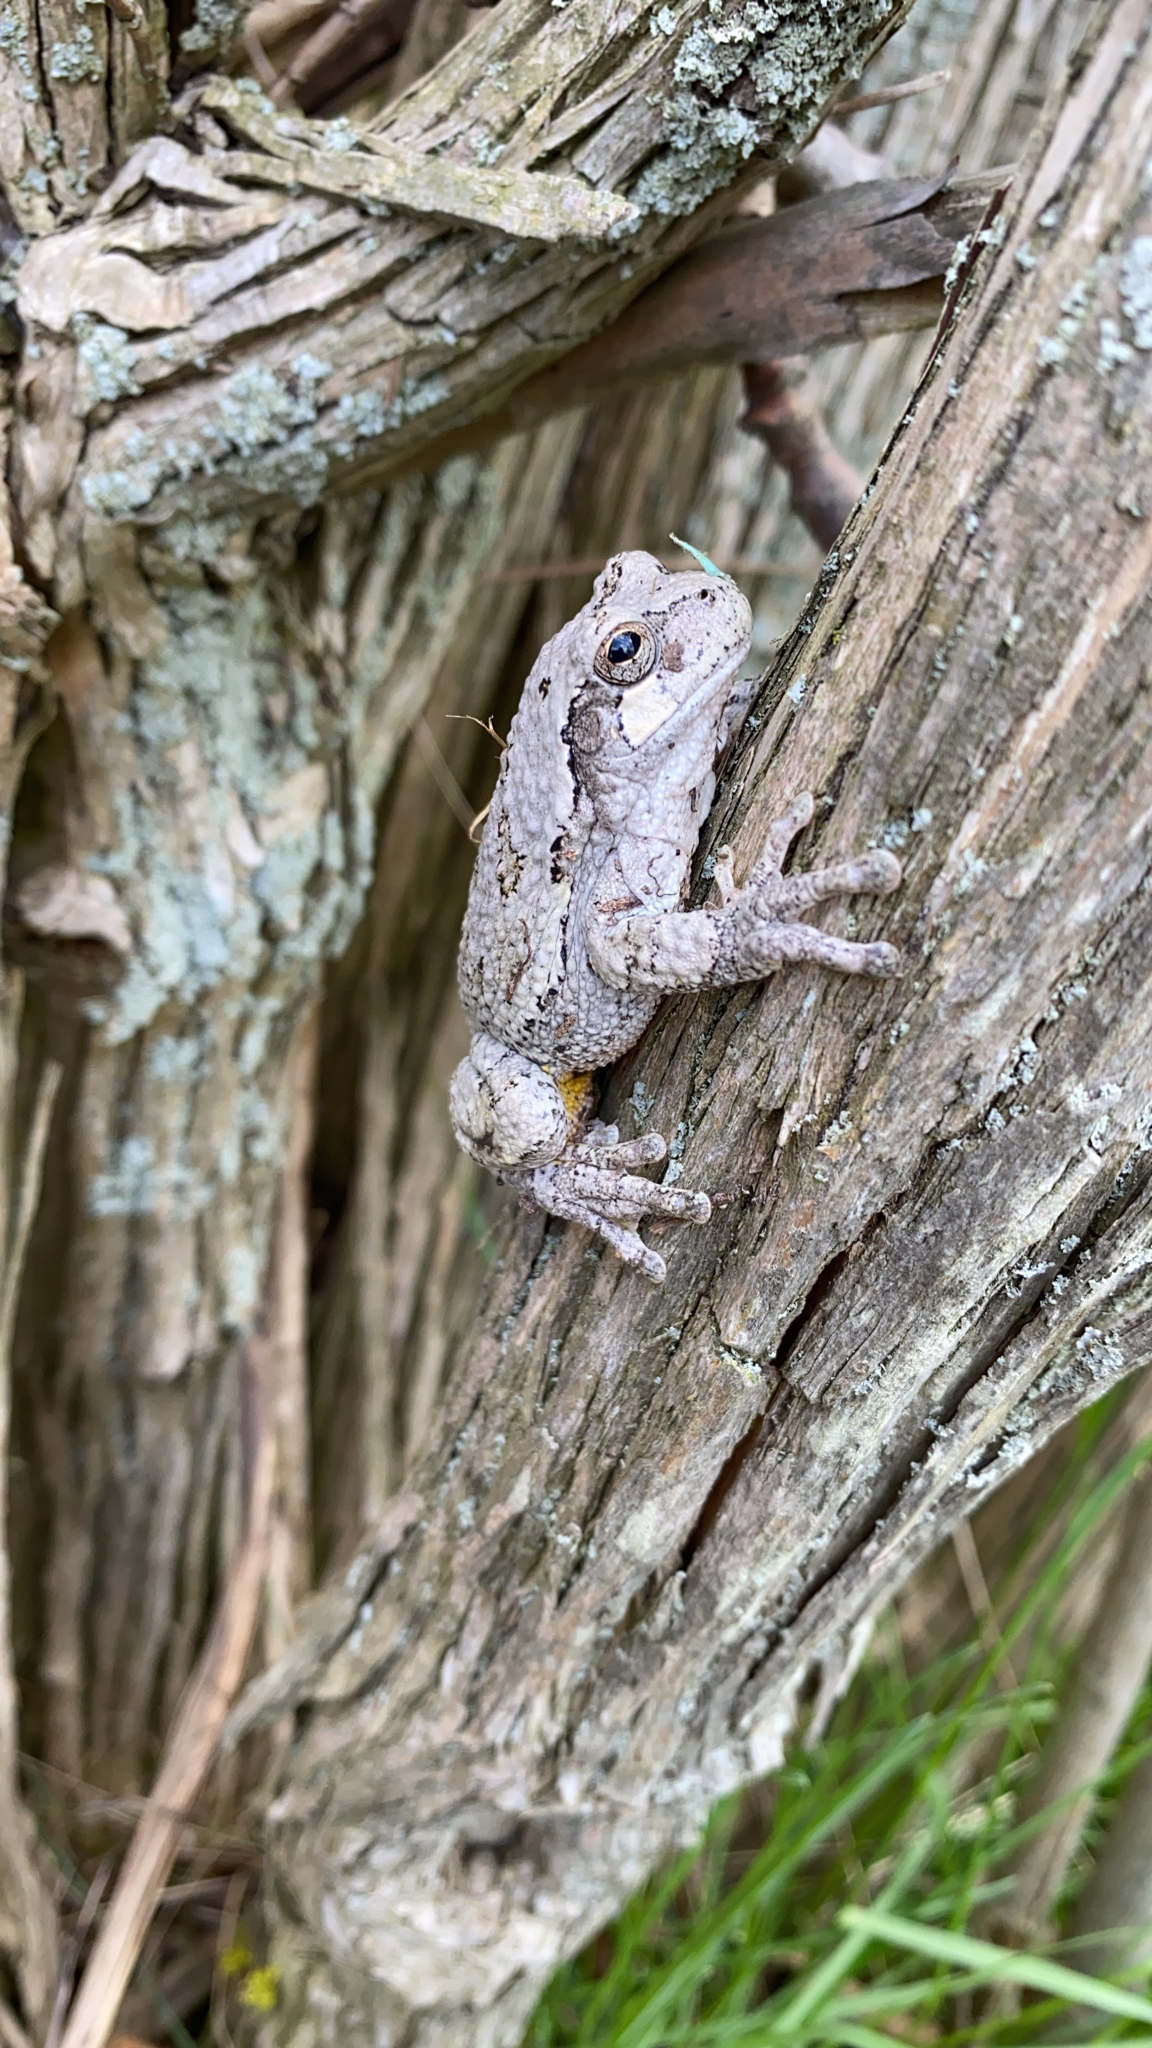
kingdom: Animalia
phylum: Chordata
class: Amphibia
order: Anura
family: Hylidae
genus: Dryophytes
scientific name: Dryophytes versicolor
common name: Gray treefrog
